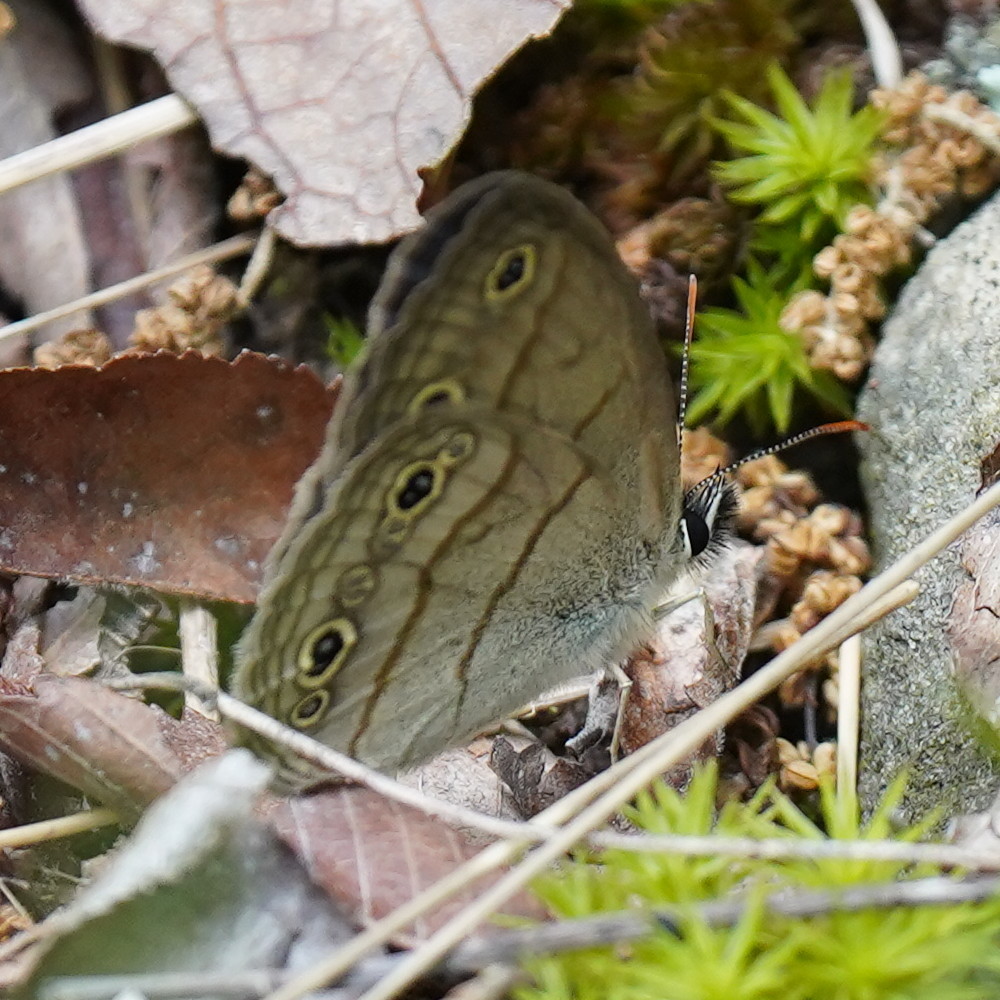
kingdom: Animalia
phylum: Arthropoda
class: Insecta
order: Lepidoptera
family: Nymphalidae
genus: Euptychia
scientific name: Euptychia cymela
